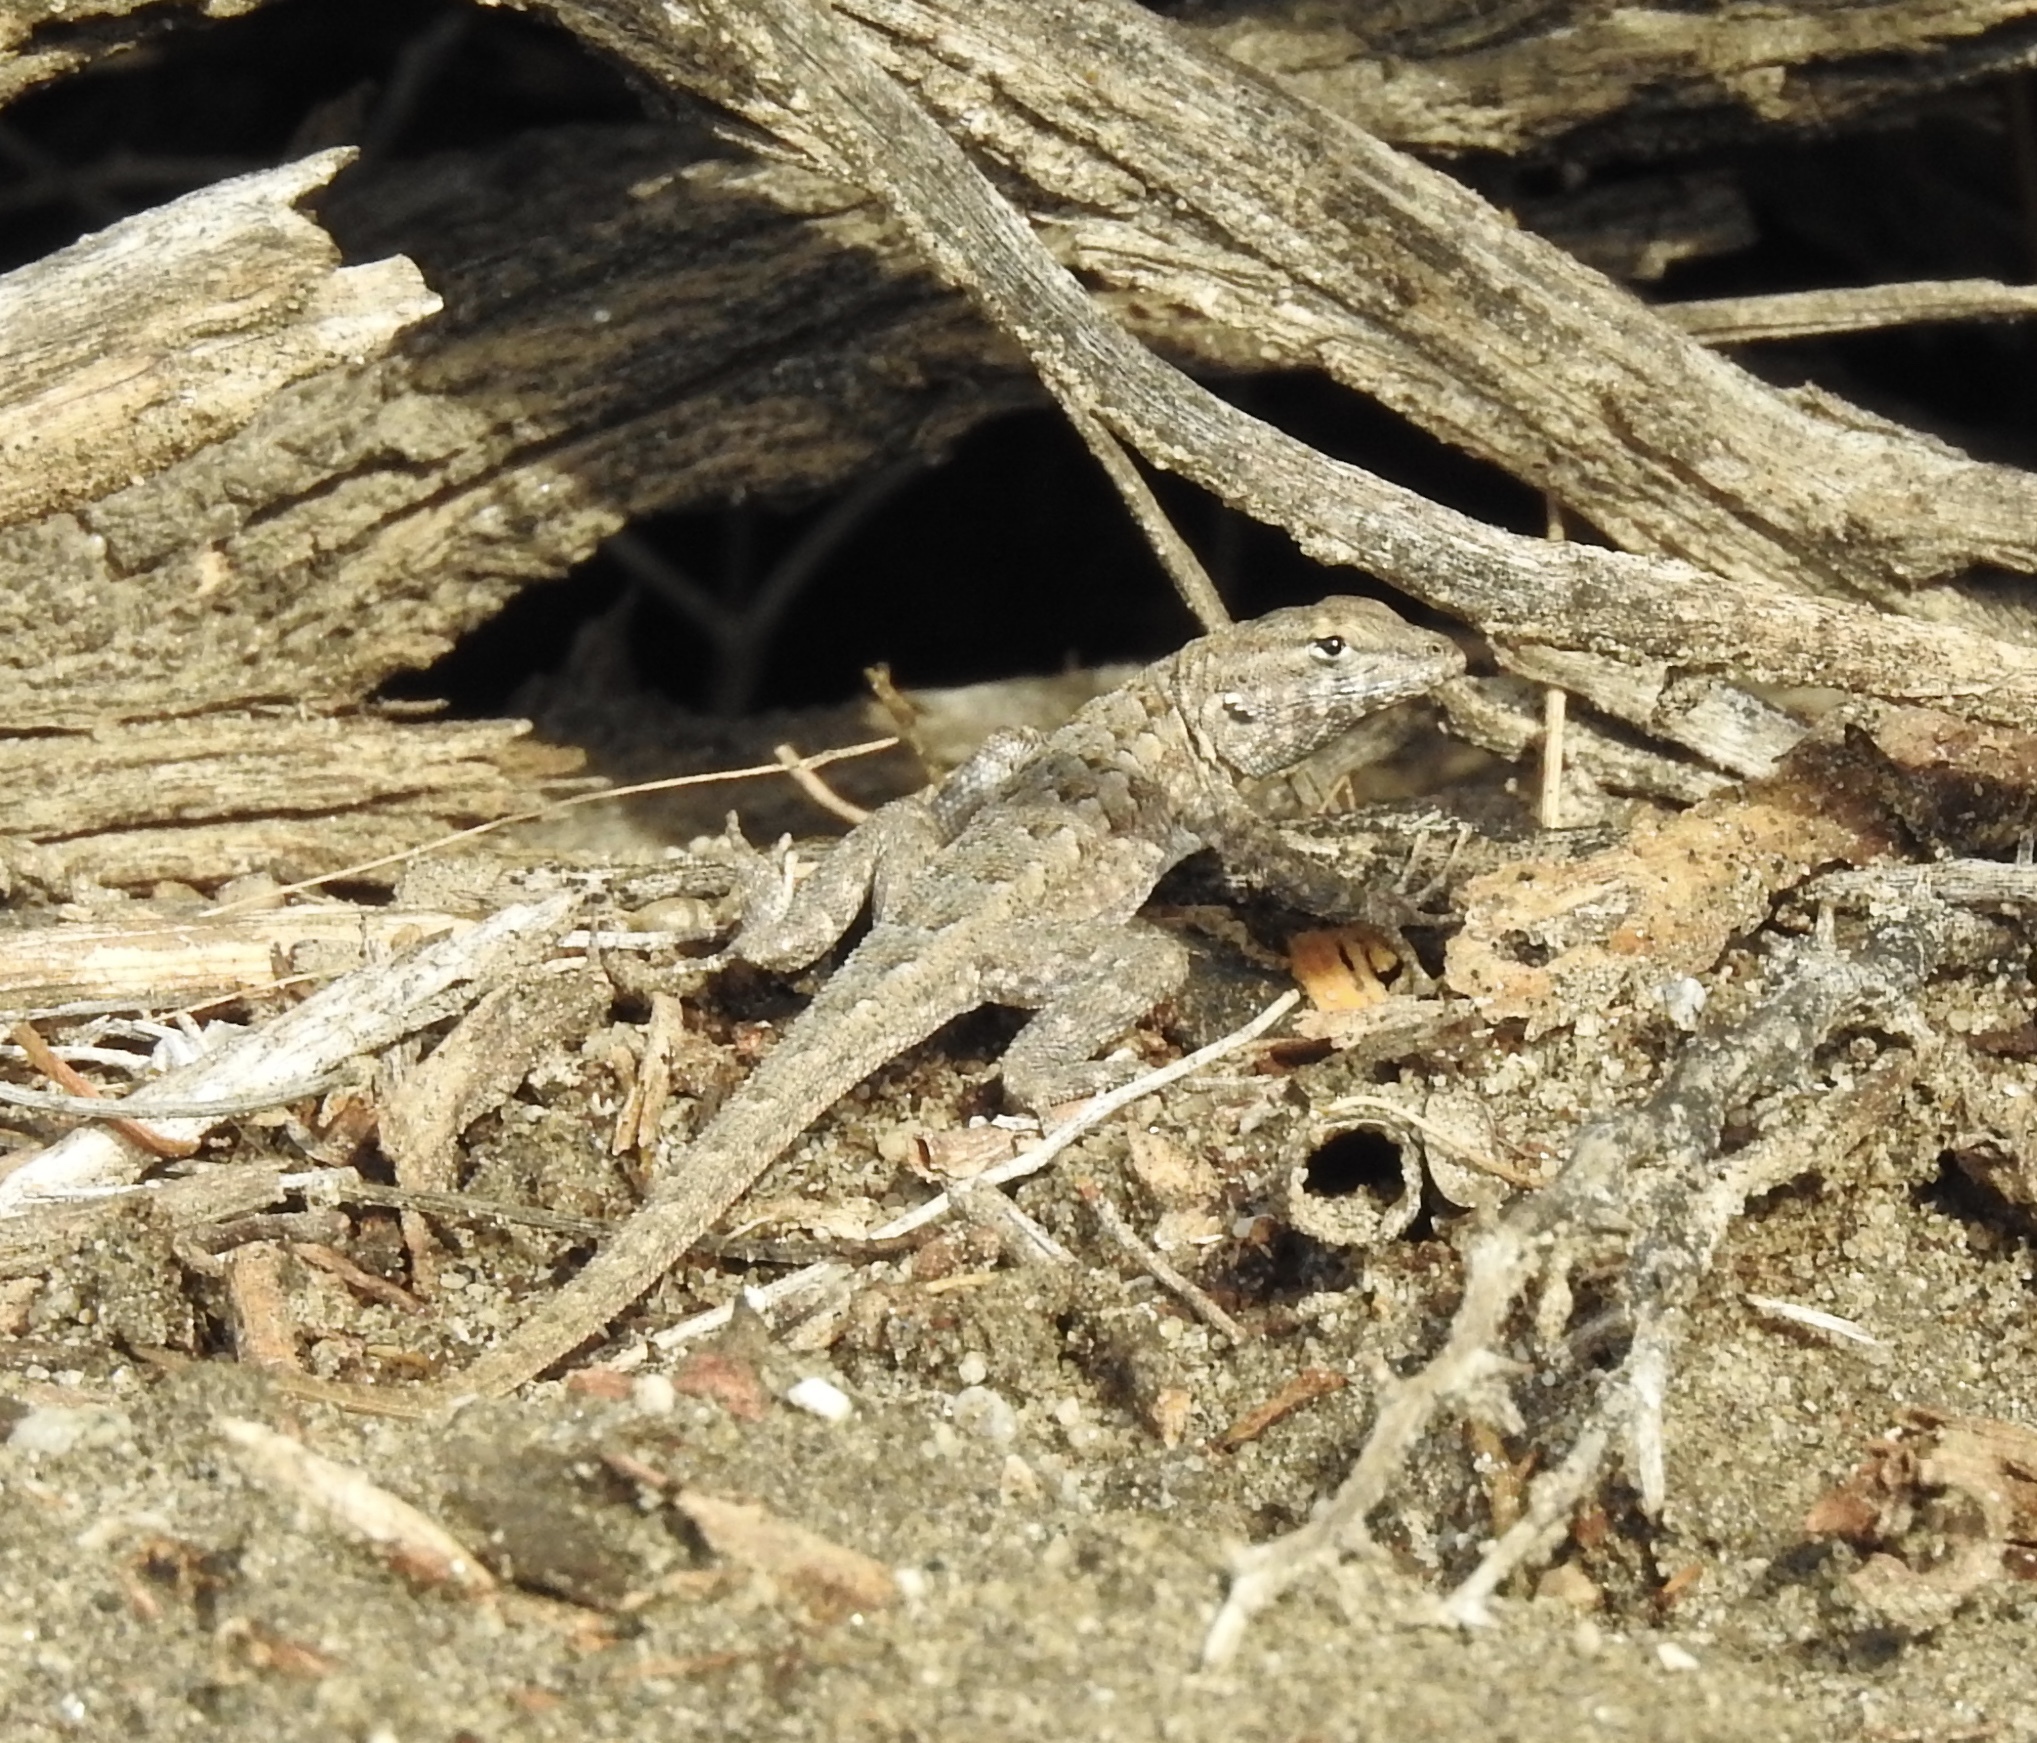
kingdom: Animalia
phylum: Chordata
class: Squamata
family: Phrynosomatidae
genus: Uta
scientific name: Uta stansburiana
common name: Side-blotched lizard
